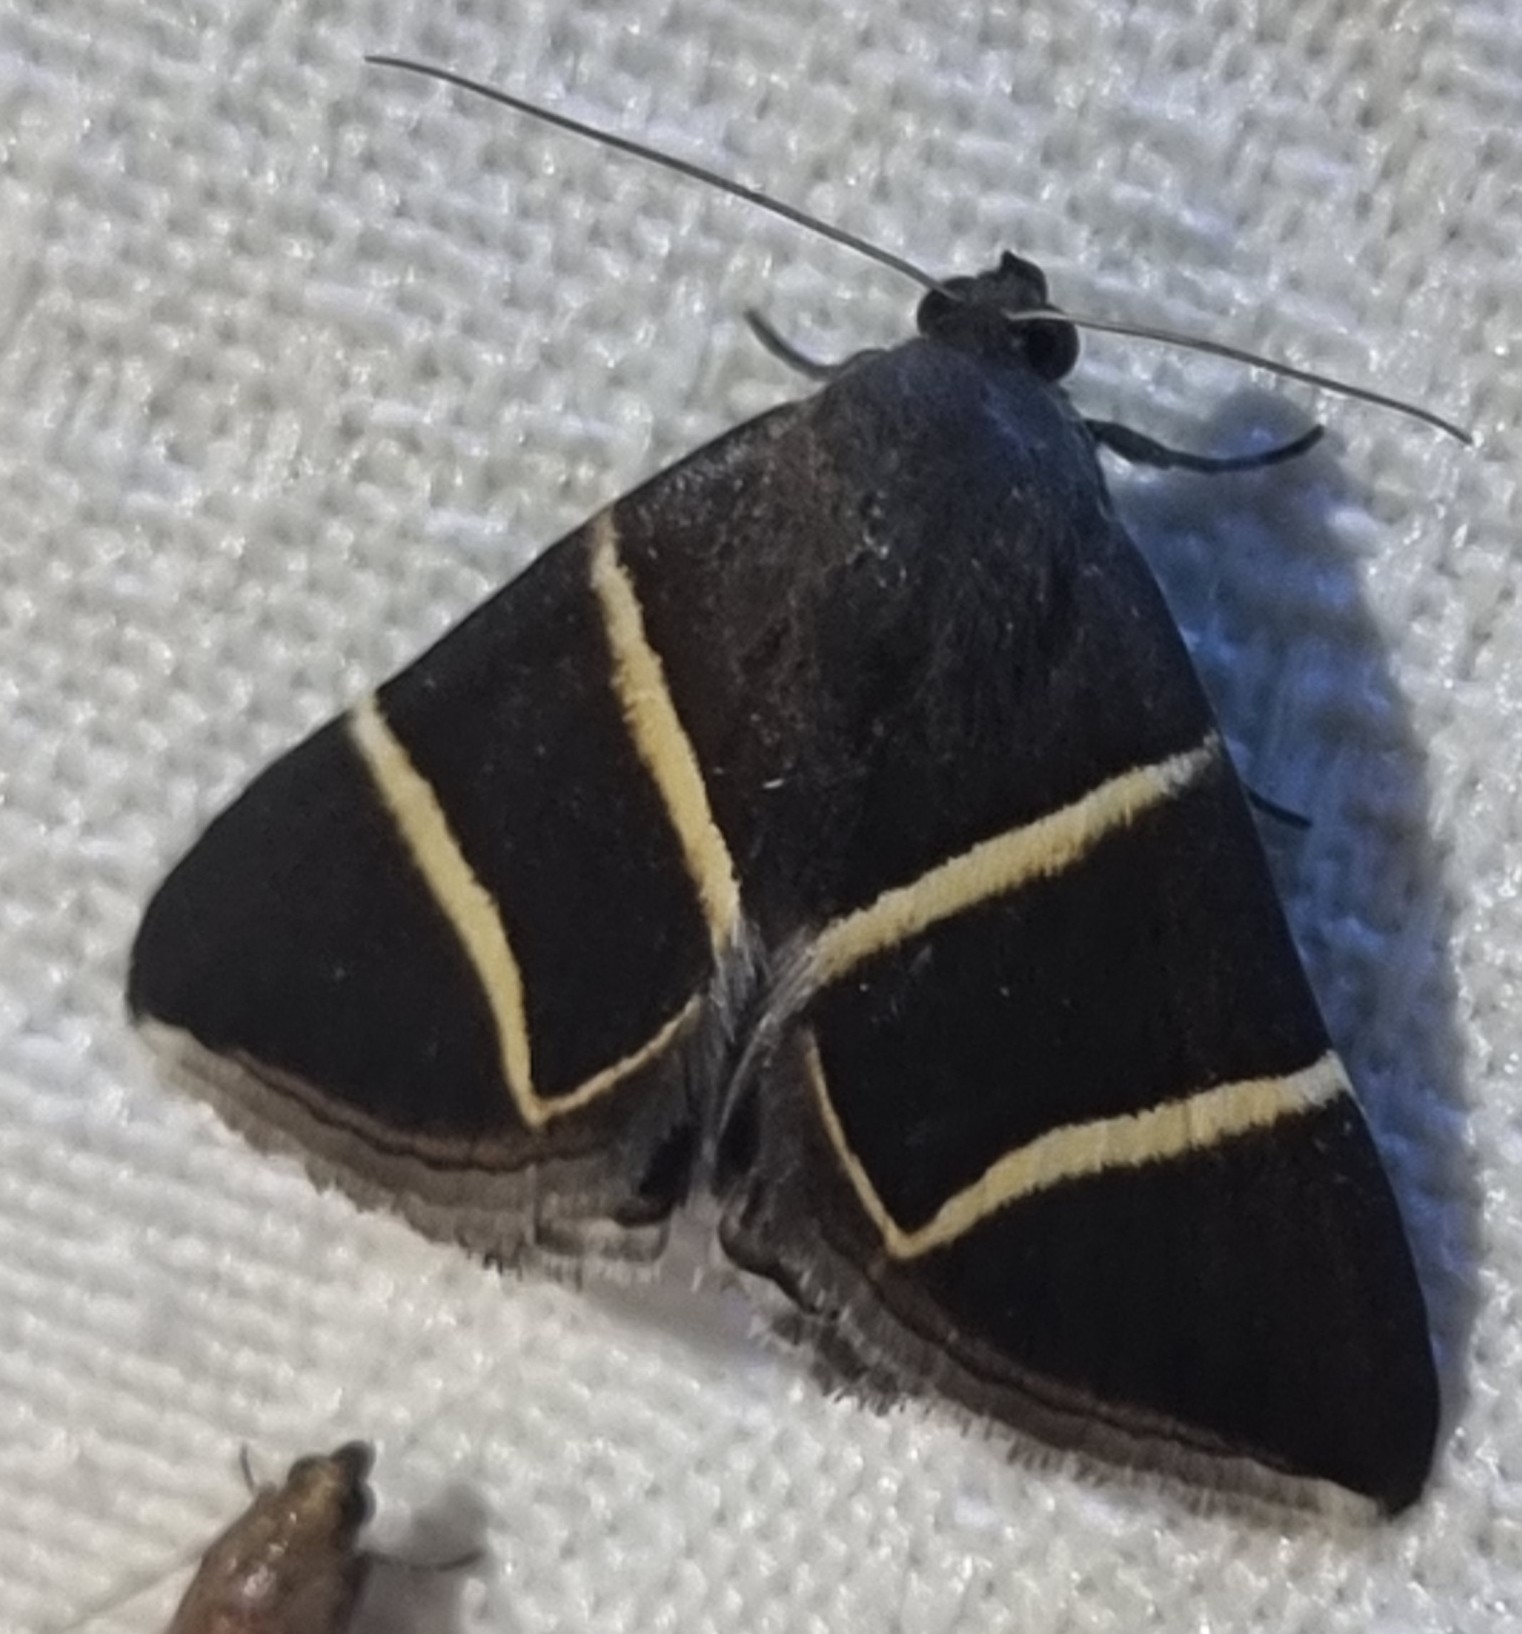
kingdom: Animalia
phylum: Arthropoda
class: Insecta
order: Lepidoptera
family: Erebidae
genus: Grammodes
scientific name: Grammodes justa
